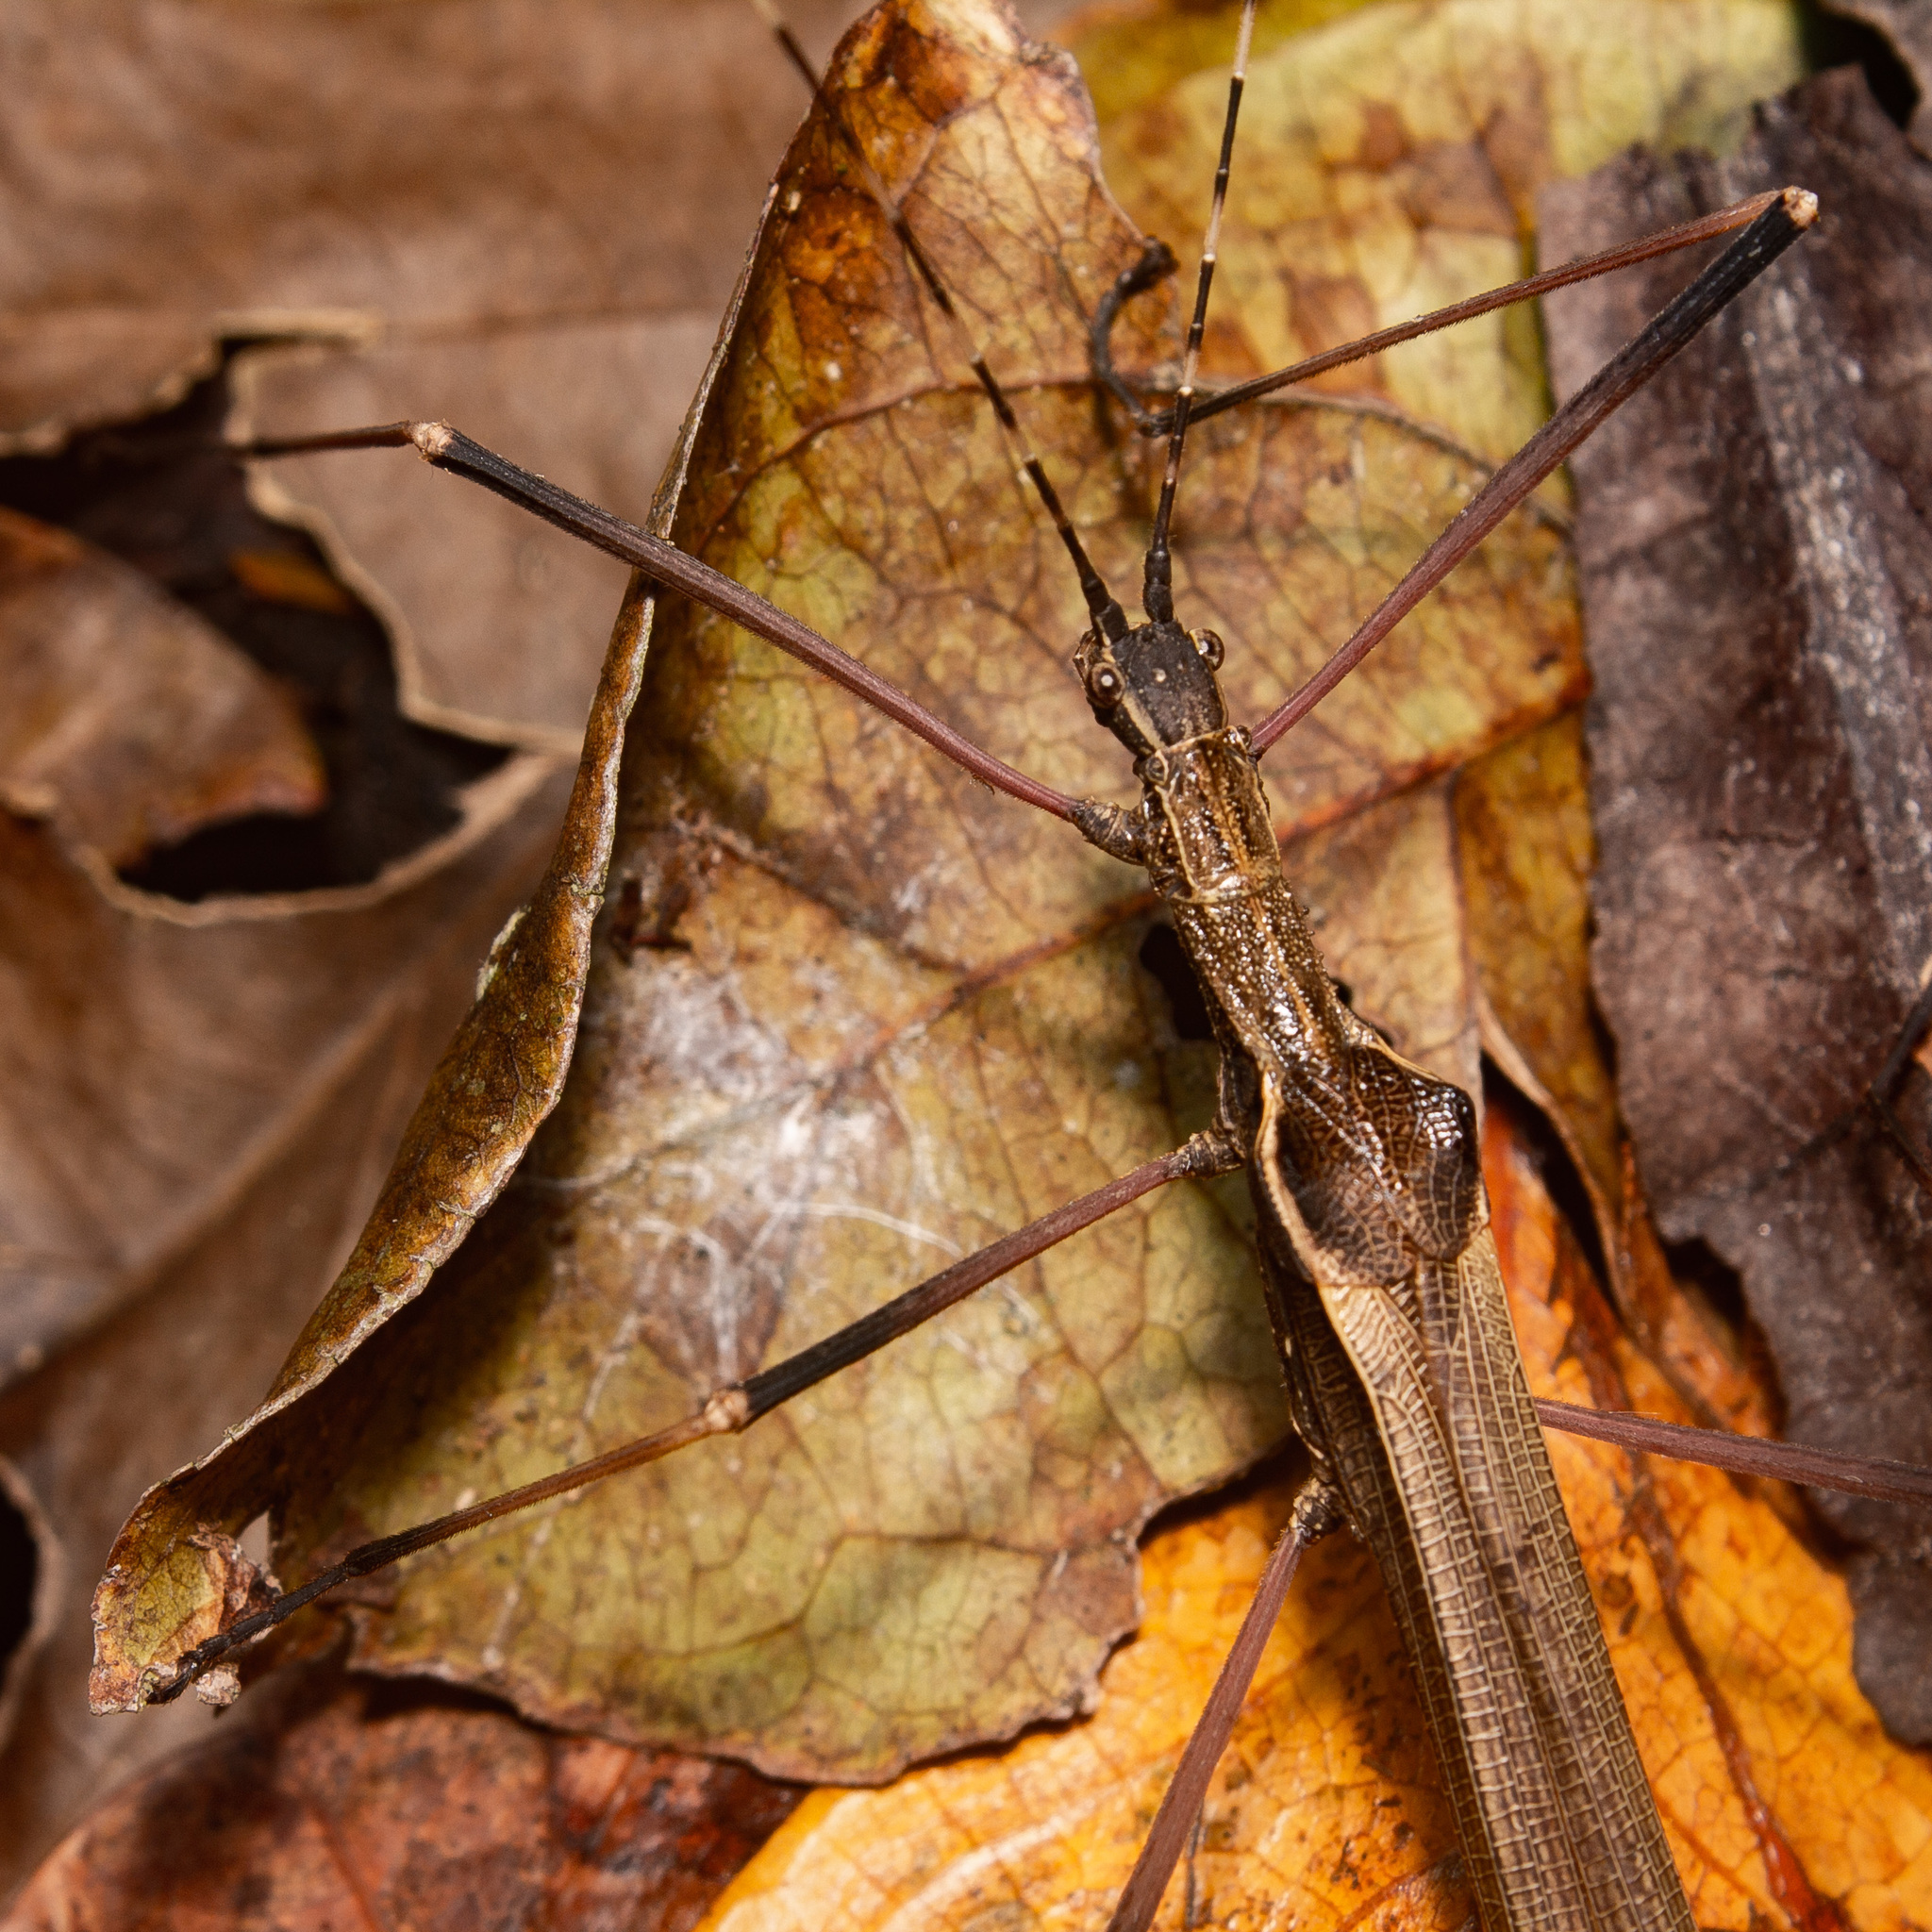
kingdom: Animalia
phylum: Arthropoda
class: Insecta
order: Phasmida
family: Pseudophasmatidae
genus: Pseudophasma
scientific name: Pseudophasma menius
